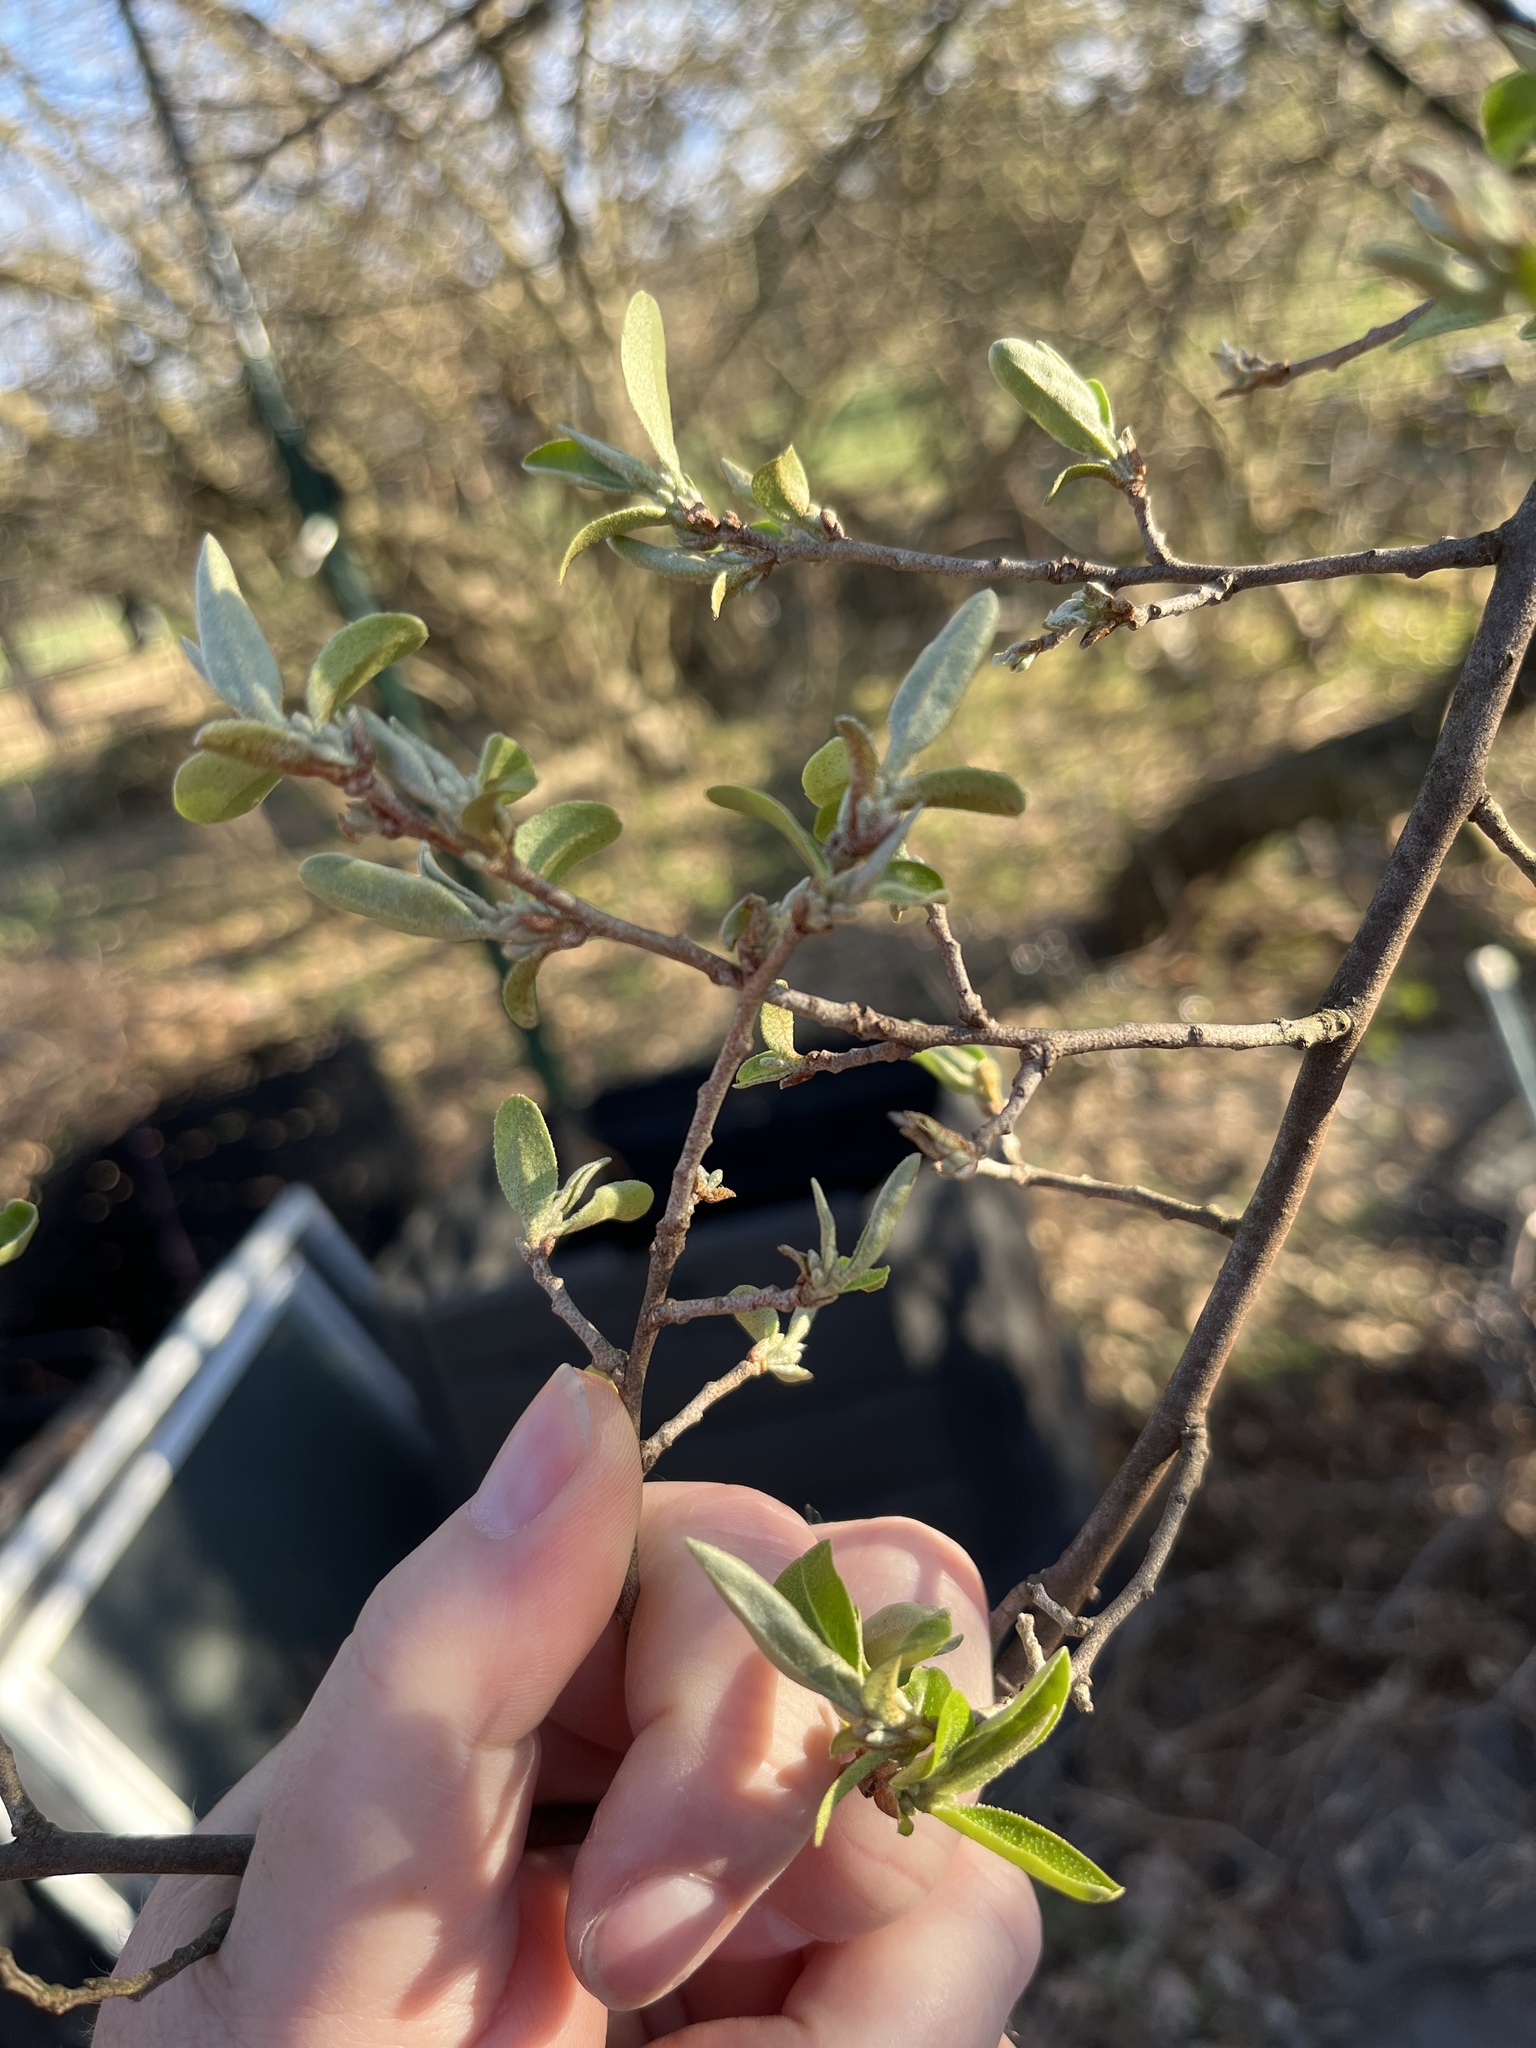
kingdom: Plantae
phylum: Tracheophyta
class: Magnoliopsida
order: Rosales
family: Elaeagnaceae
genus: Elaeagnus
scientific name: Elaeagnus umbellata
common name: Autumn olive
